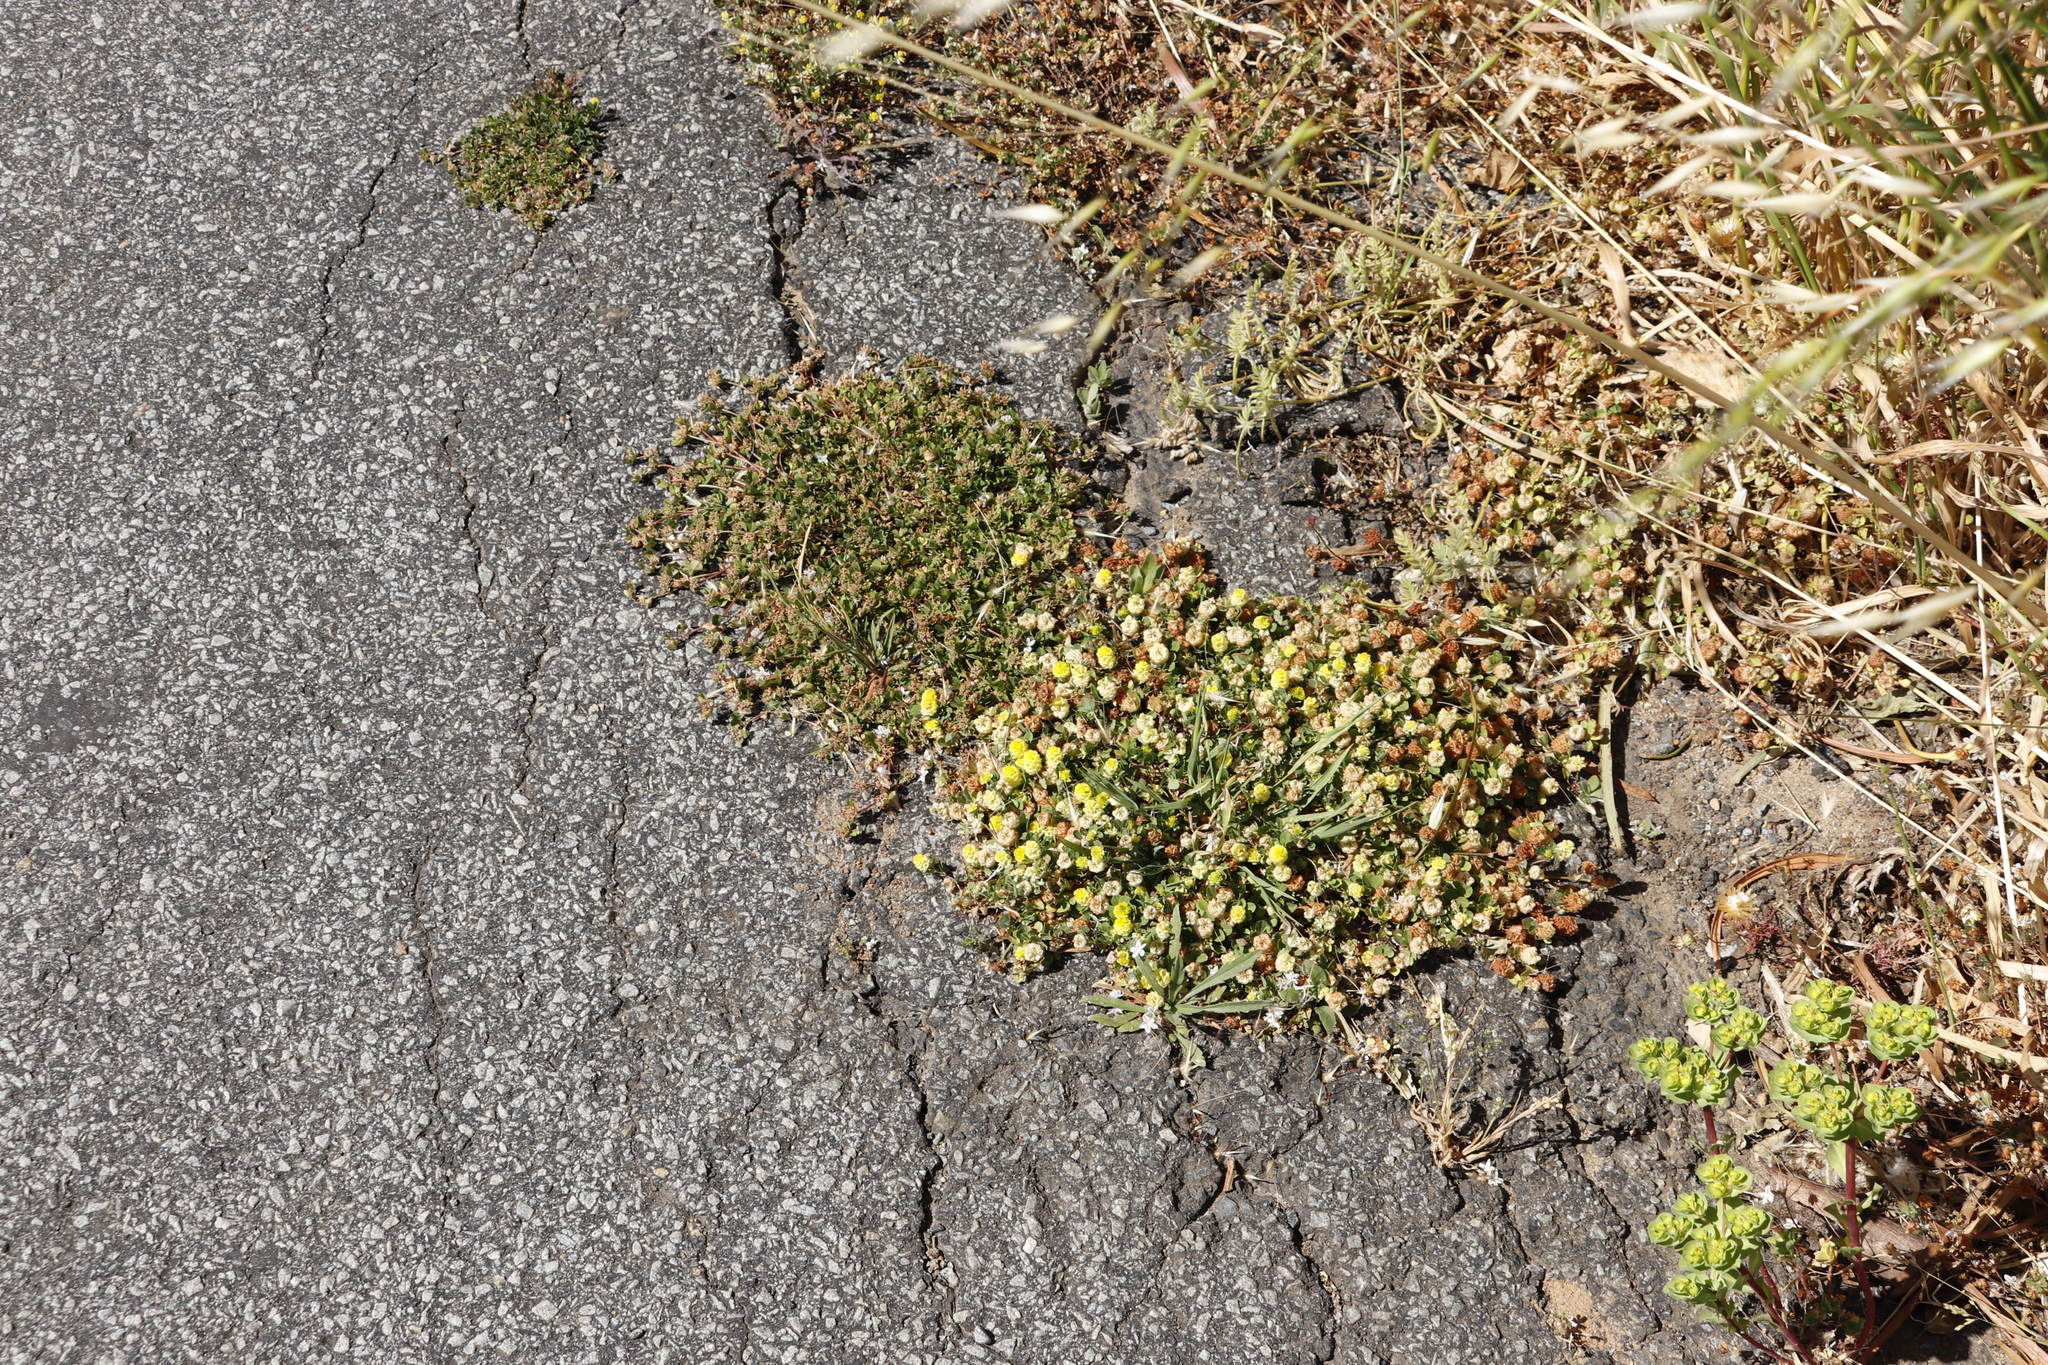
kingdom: Plantae
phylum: Tracheophyta
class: Magnoliopsida
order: Fabales
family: Fabaceae
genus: Trifolium
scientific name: Trifolium campestre
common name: Field clover
